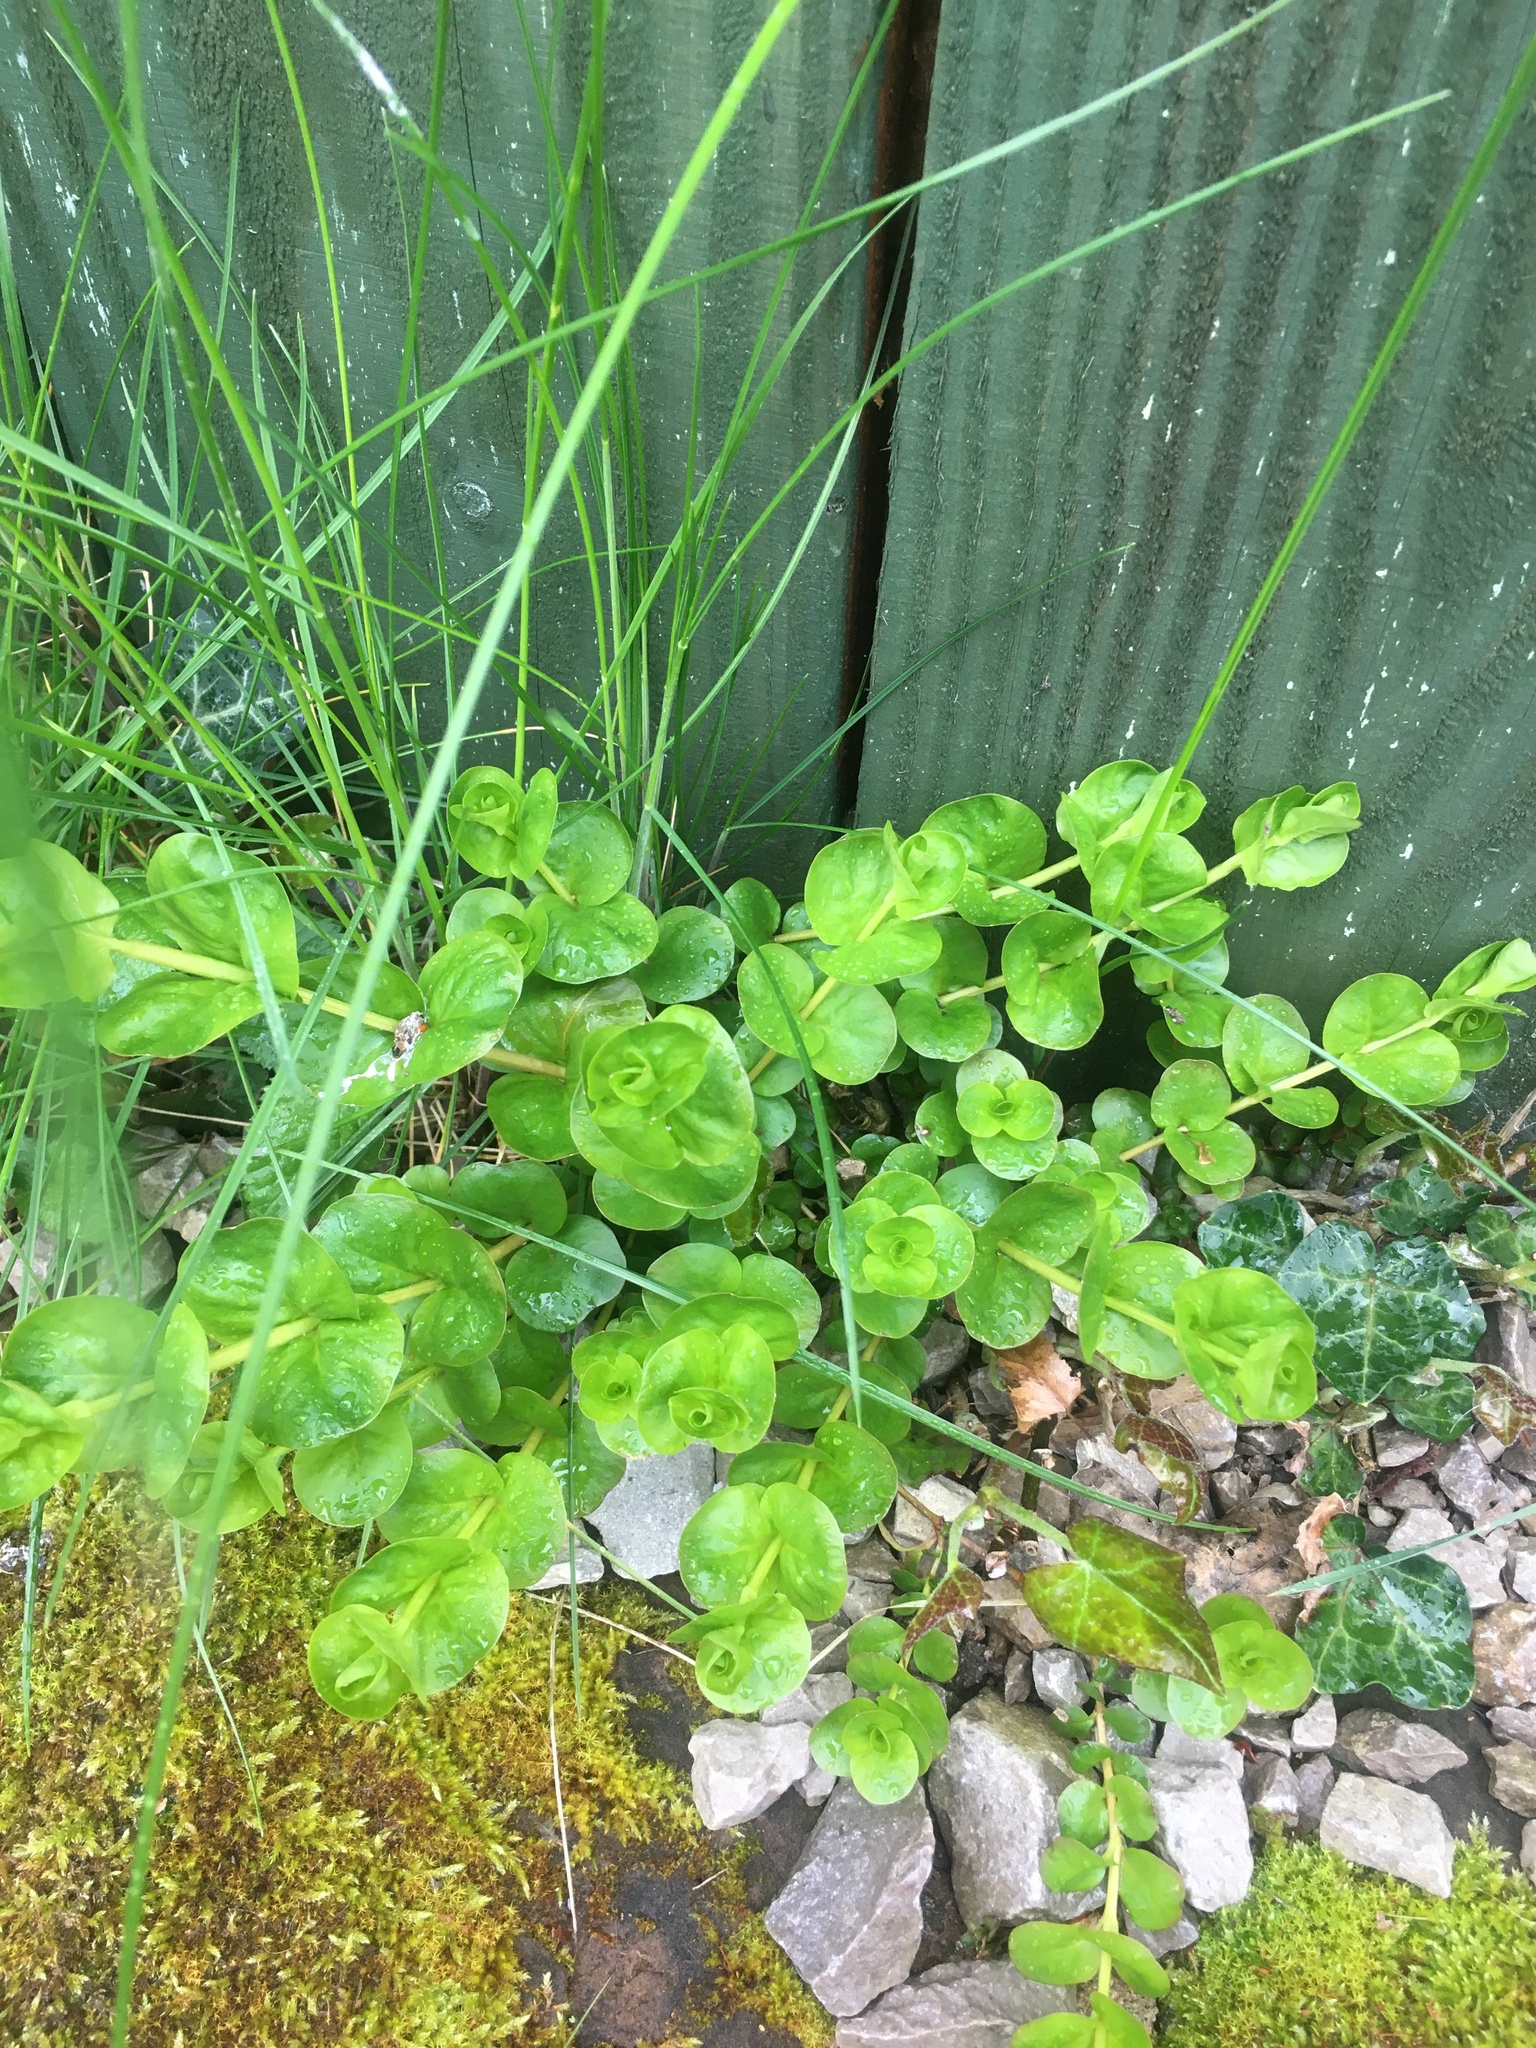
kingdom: Plantae
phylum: Tracheophyta
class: Magnoliopsida
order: Ericales
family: Primulaceae
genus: Lysimachia
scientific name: Lysimachia nummularia
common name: Moneywort
